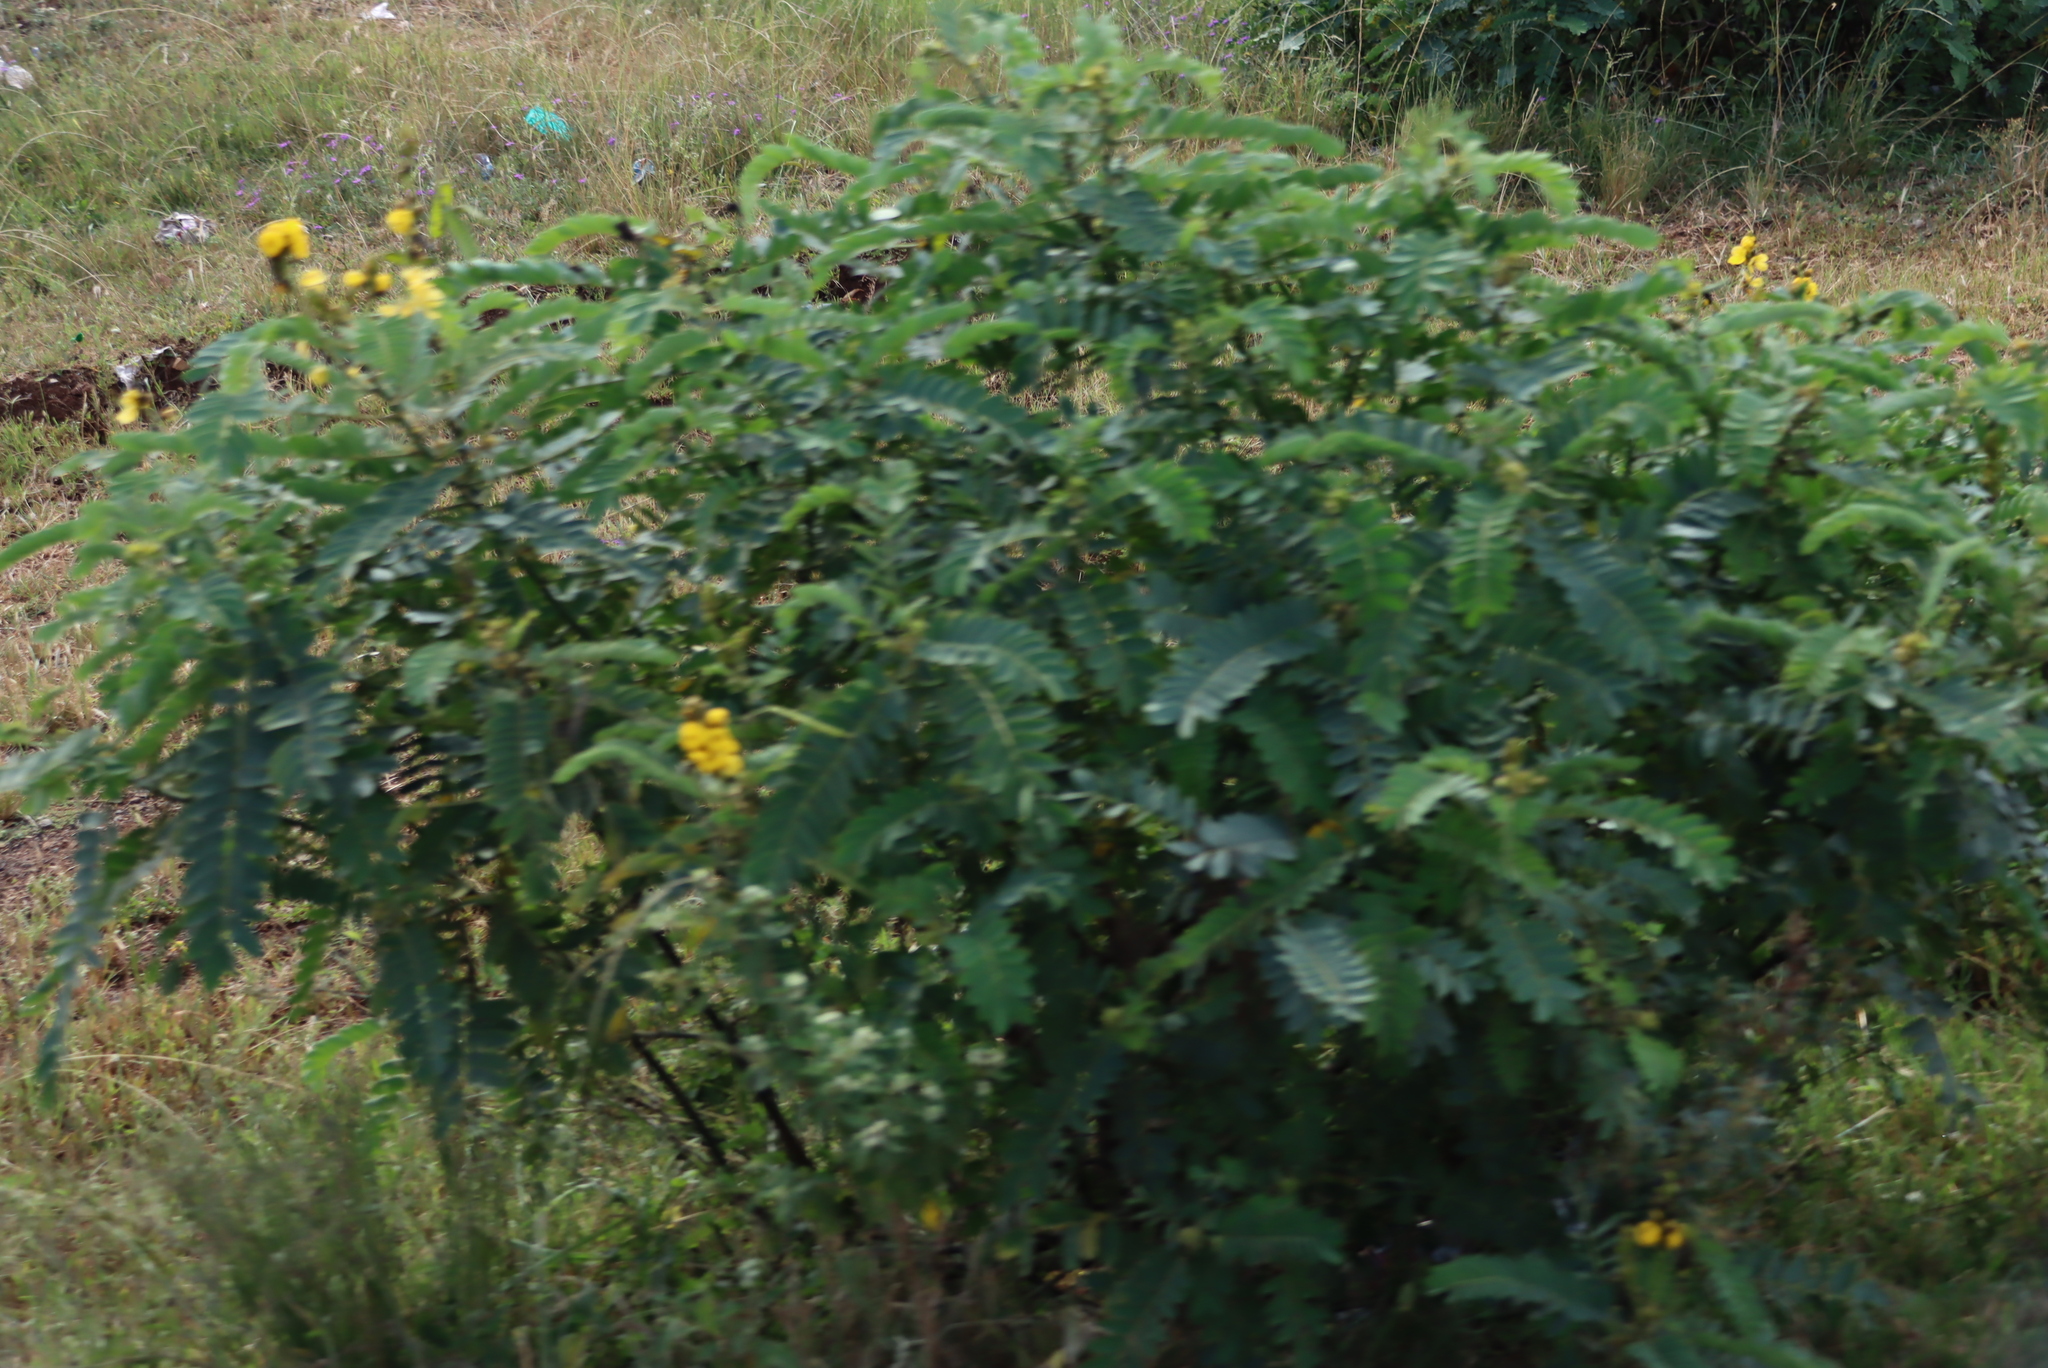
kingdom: Plantae
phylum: Tracheophyta
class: Magnoliopsida
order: Fabales
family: Fabaceae
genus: Senna
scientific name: Senna didymobotrya
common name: African senna
